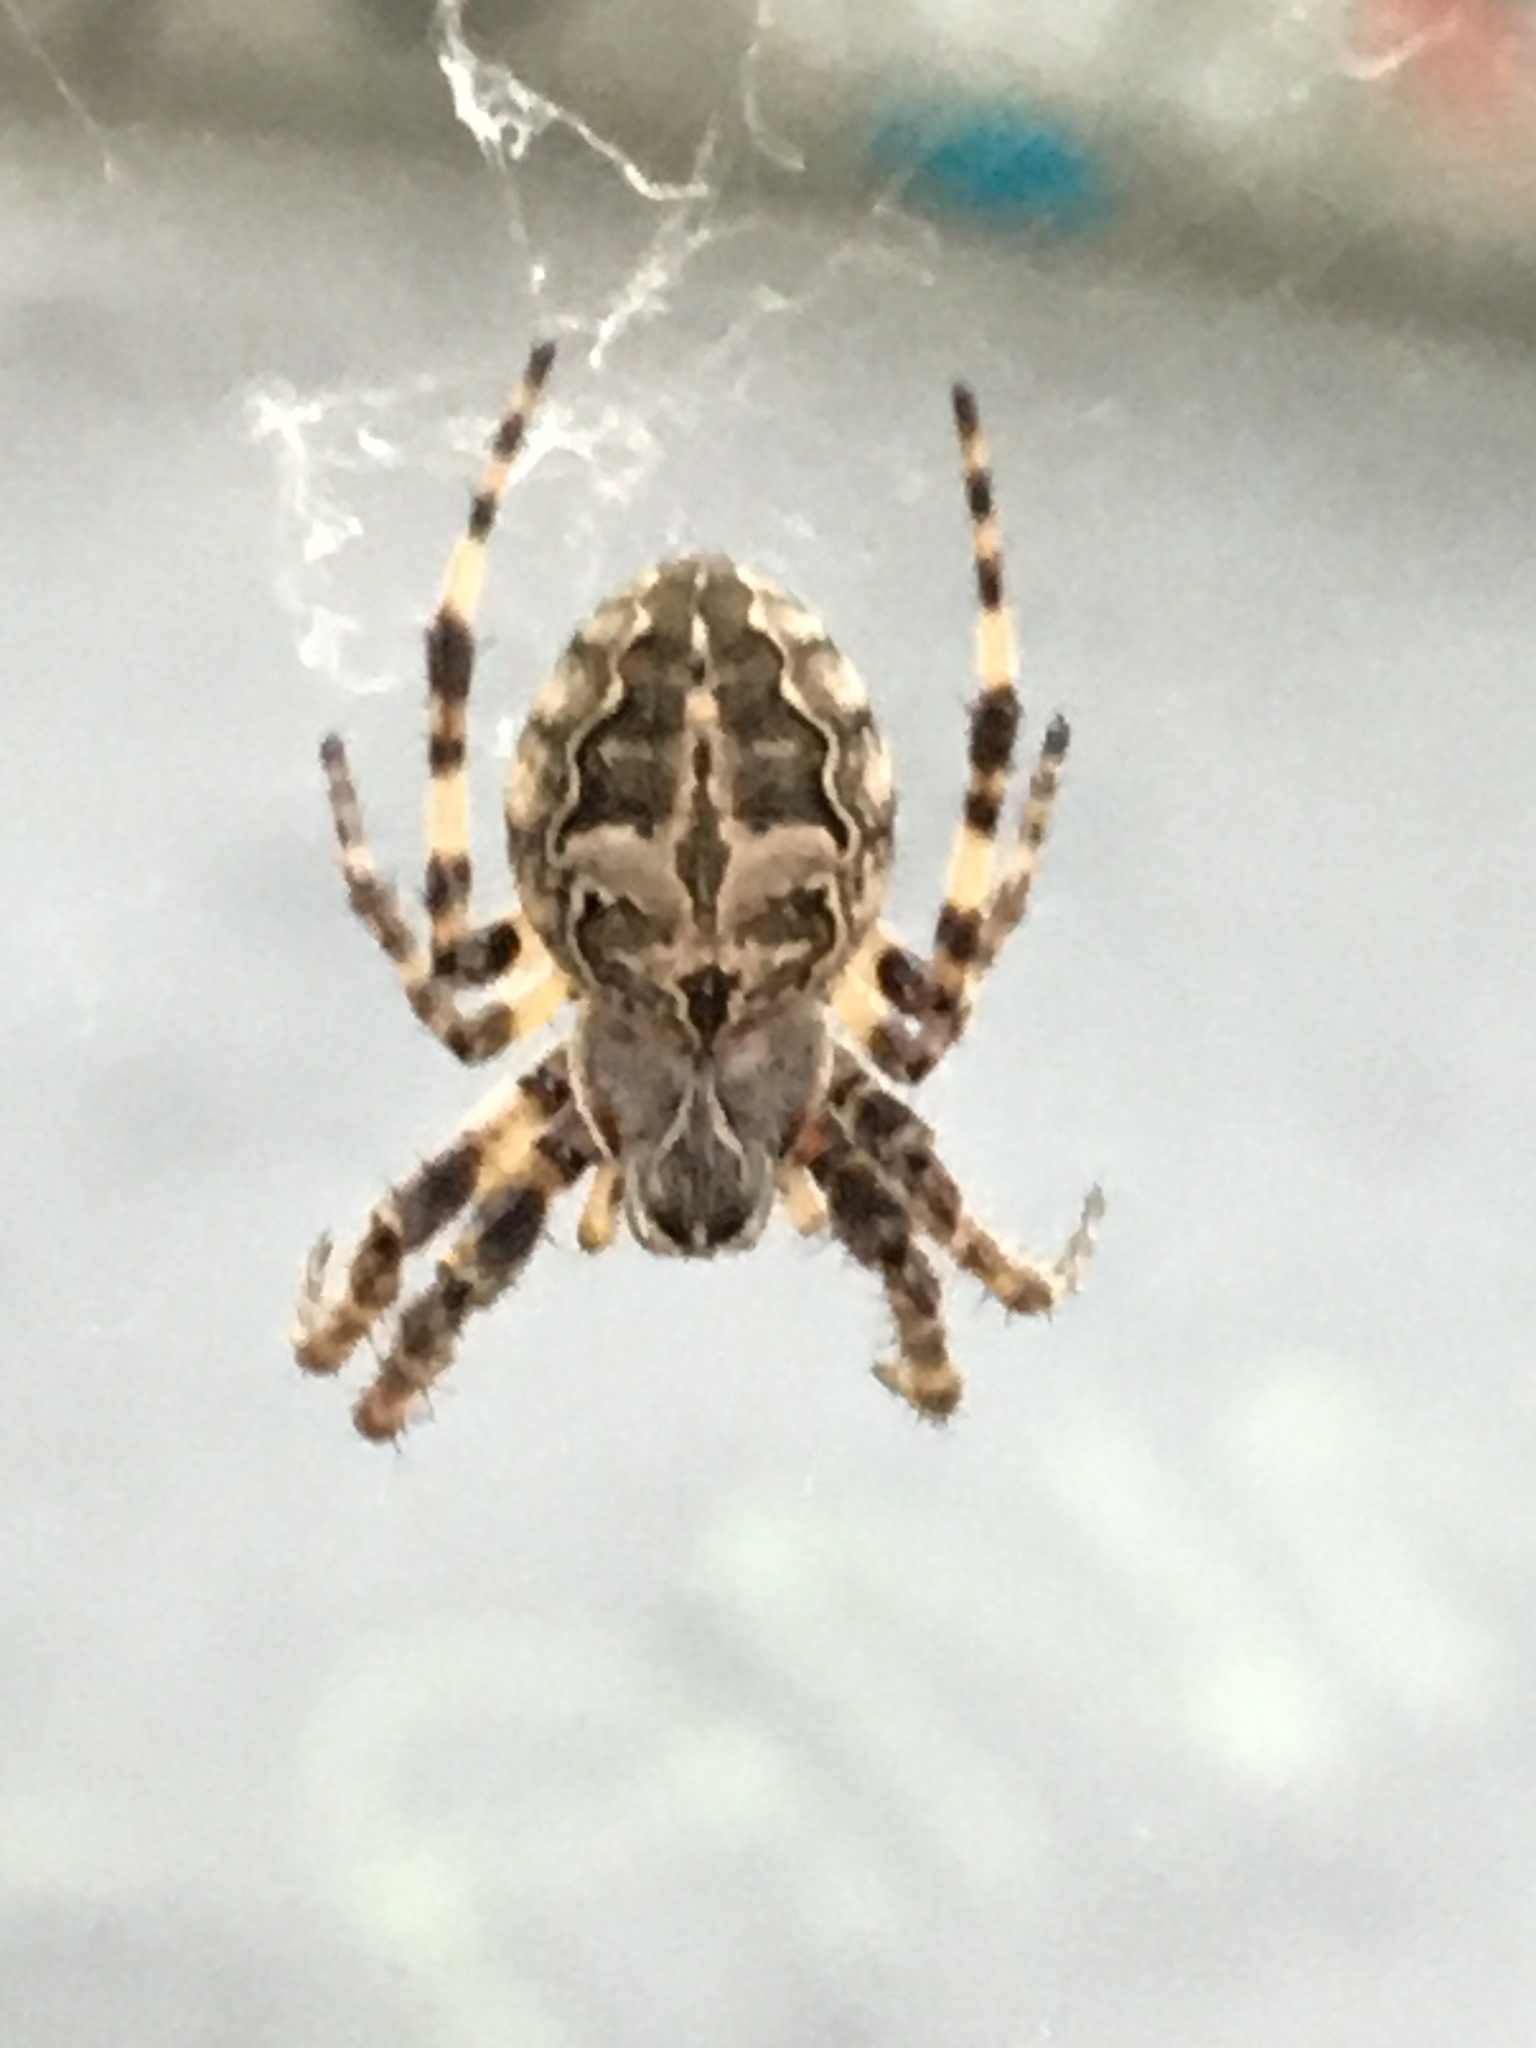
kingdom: Animalia
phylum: Arthropoda
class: Arachnida
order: Araneae
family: Araneidae
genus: Larinioides
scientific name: Larinioides sclopetarius
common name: Bridge orbweaver
